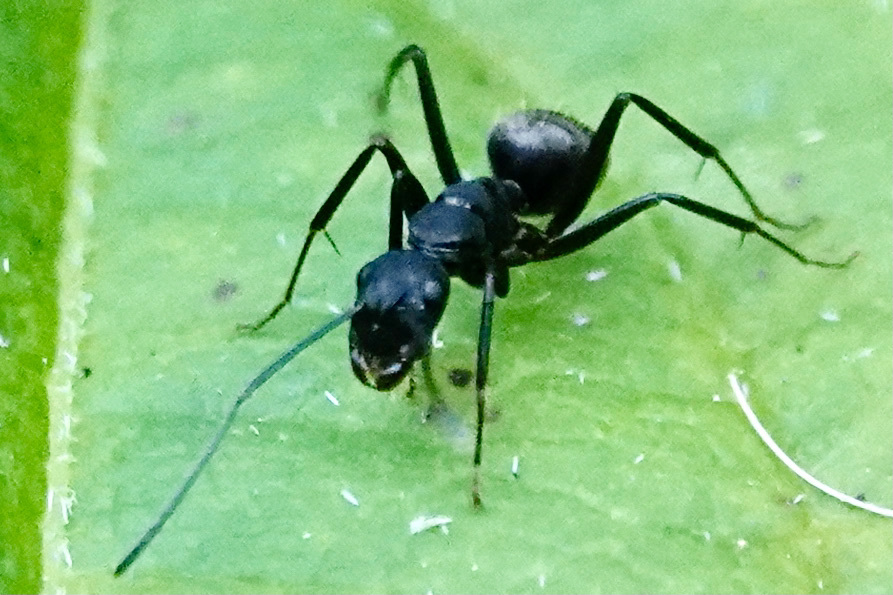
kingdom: Animalia
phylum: Arthropoda
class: Insecta
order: Hymenoptera
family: Formicidae
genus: Camponotus
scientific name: Camponotus pennsylvanicus
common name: Black carpenter ant
